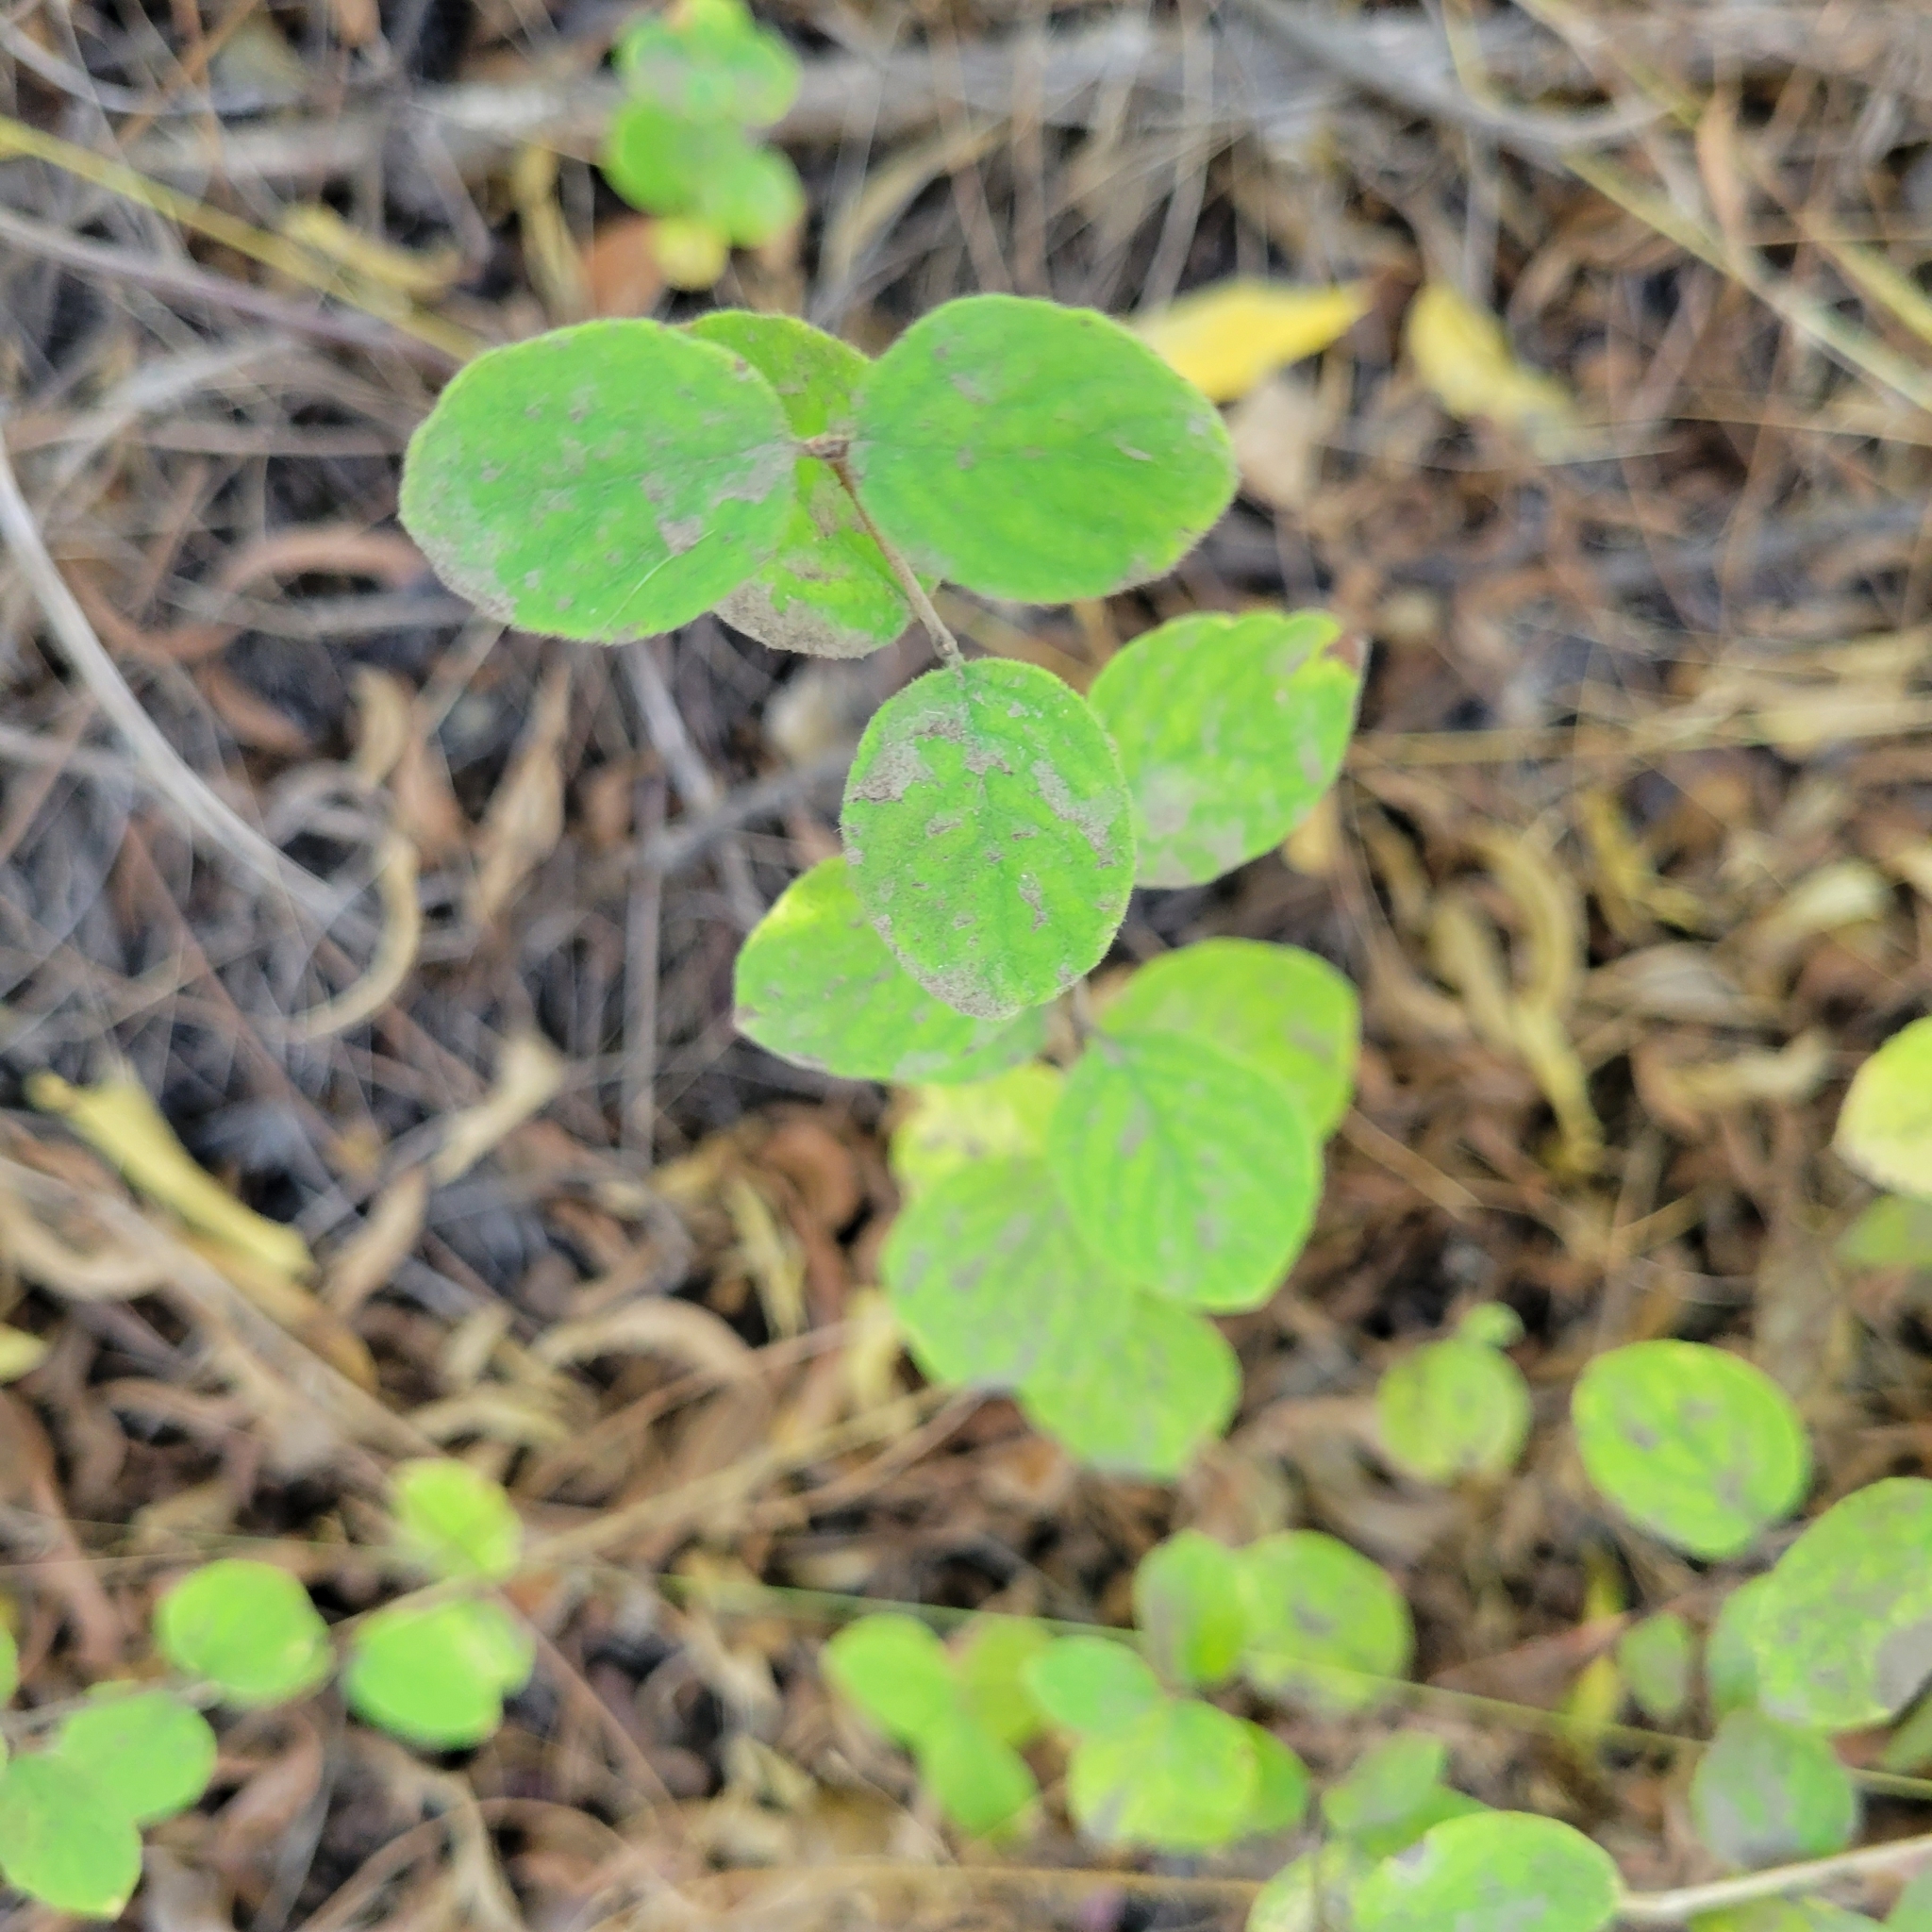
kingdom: Plantae
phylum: Tracheophyta
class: Magnoliopsida
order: Dipsacales
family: Caprifoliaceae
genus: Symphoricarpos
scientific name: Symphoricarpos mollis
